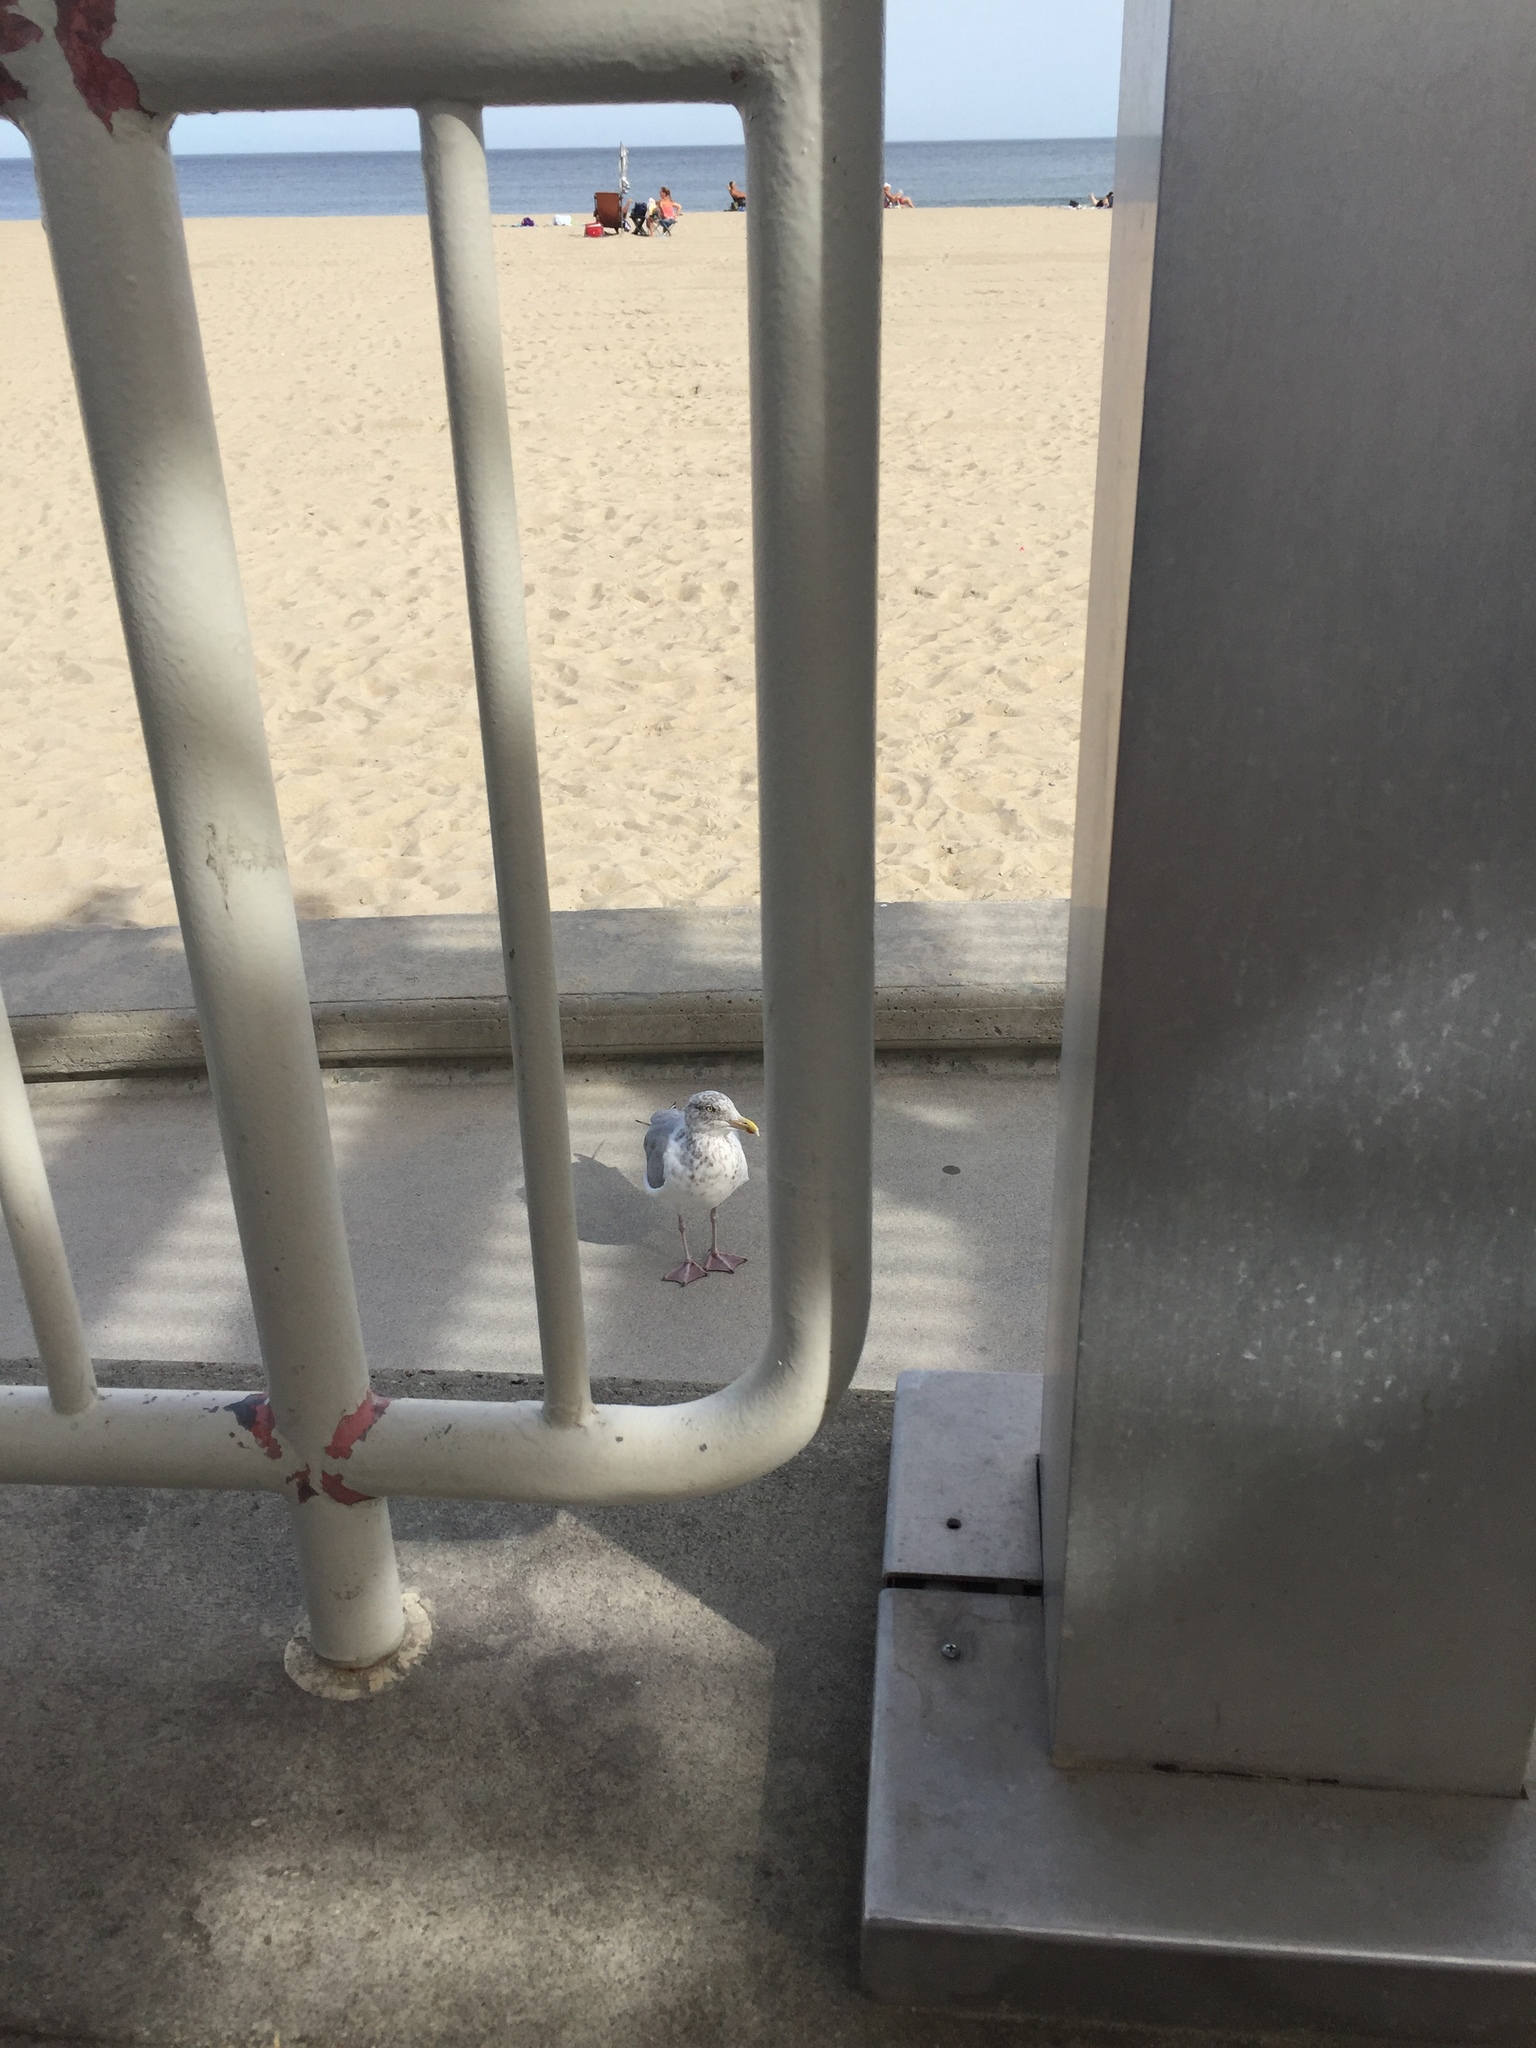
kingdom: Animalia
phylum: Chordata
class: Aves
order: Charadriiformes
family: Laridae
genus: Larus
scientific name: Larus argentatus
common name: Herring gull
